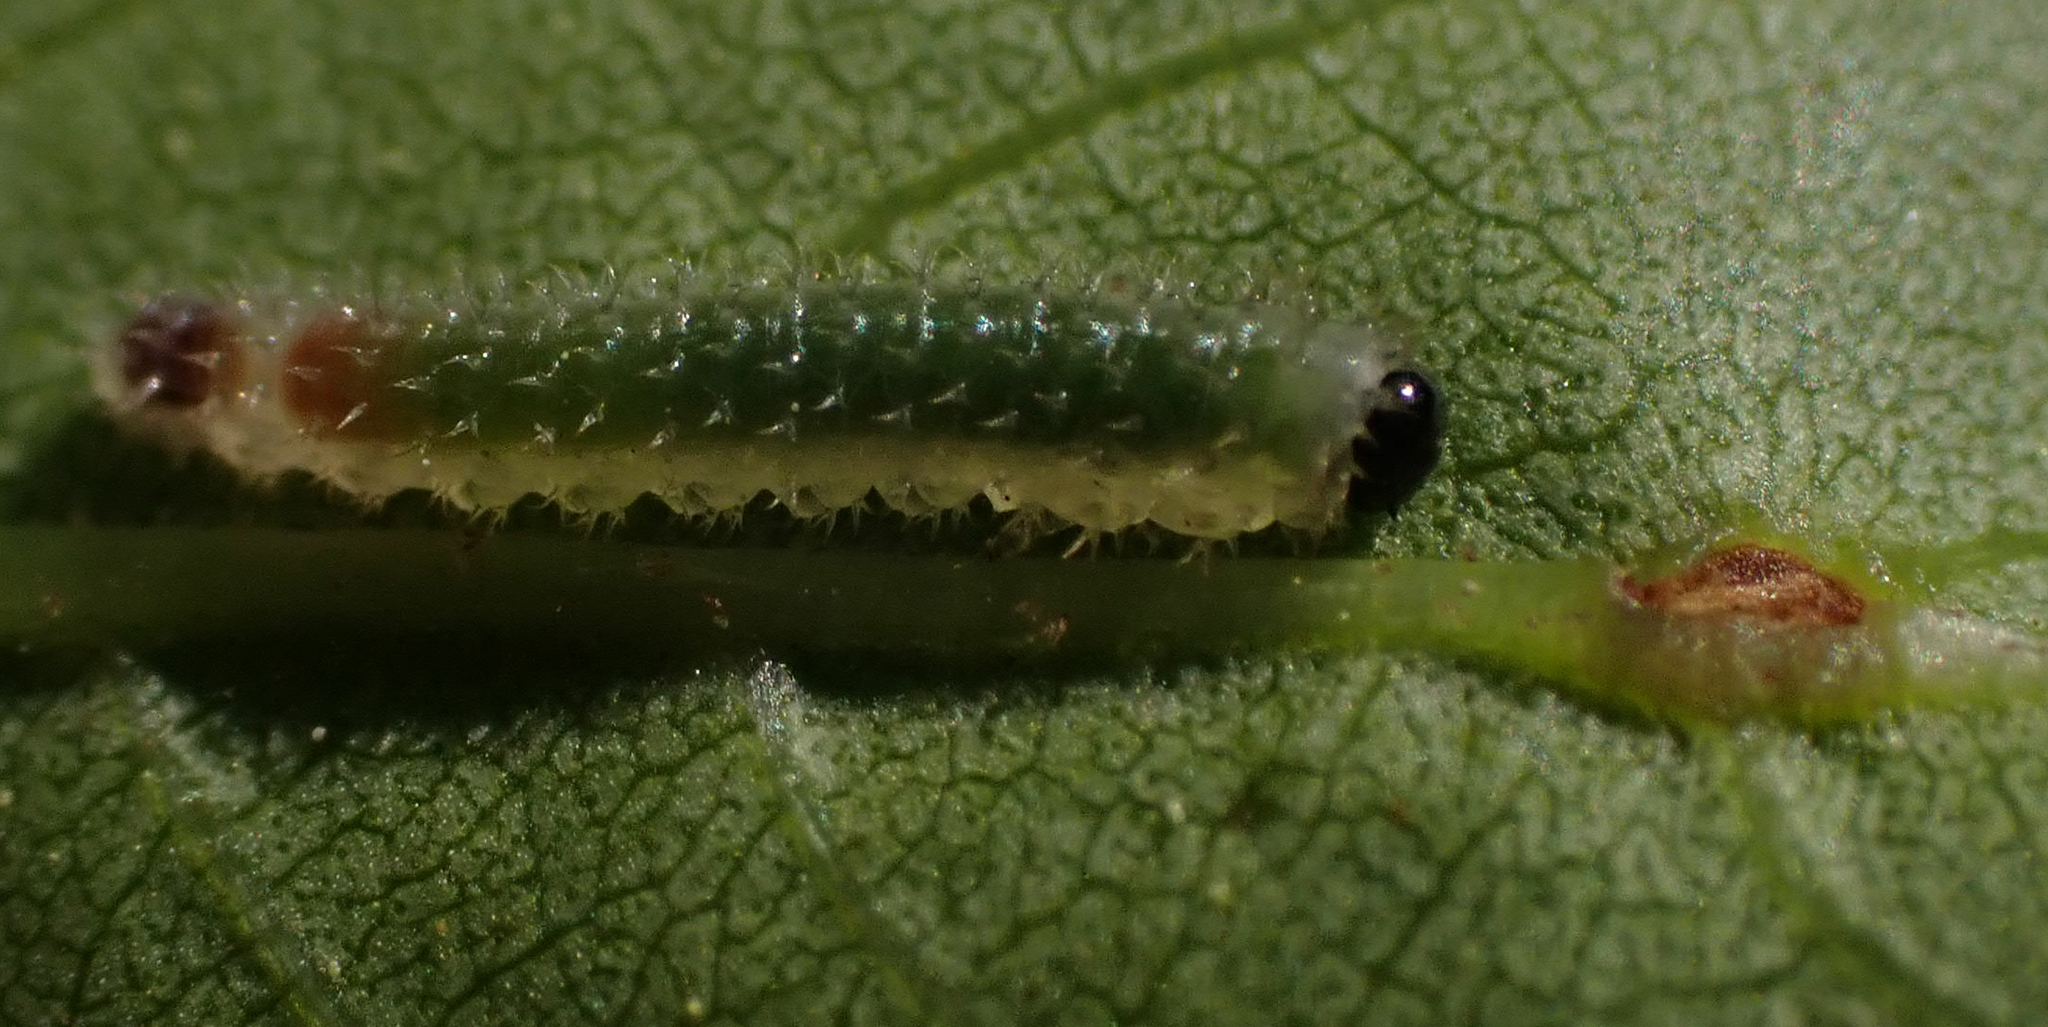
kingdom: Animalia
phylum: Arthropoda
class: Insecta
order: Hymenoptera
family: Tenthredinidae
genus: Eupareophora
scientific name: Eupareophora parca
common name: Sawfly
